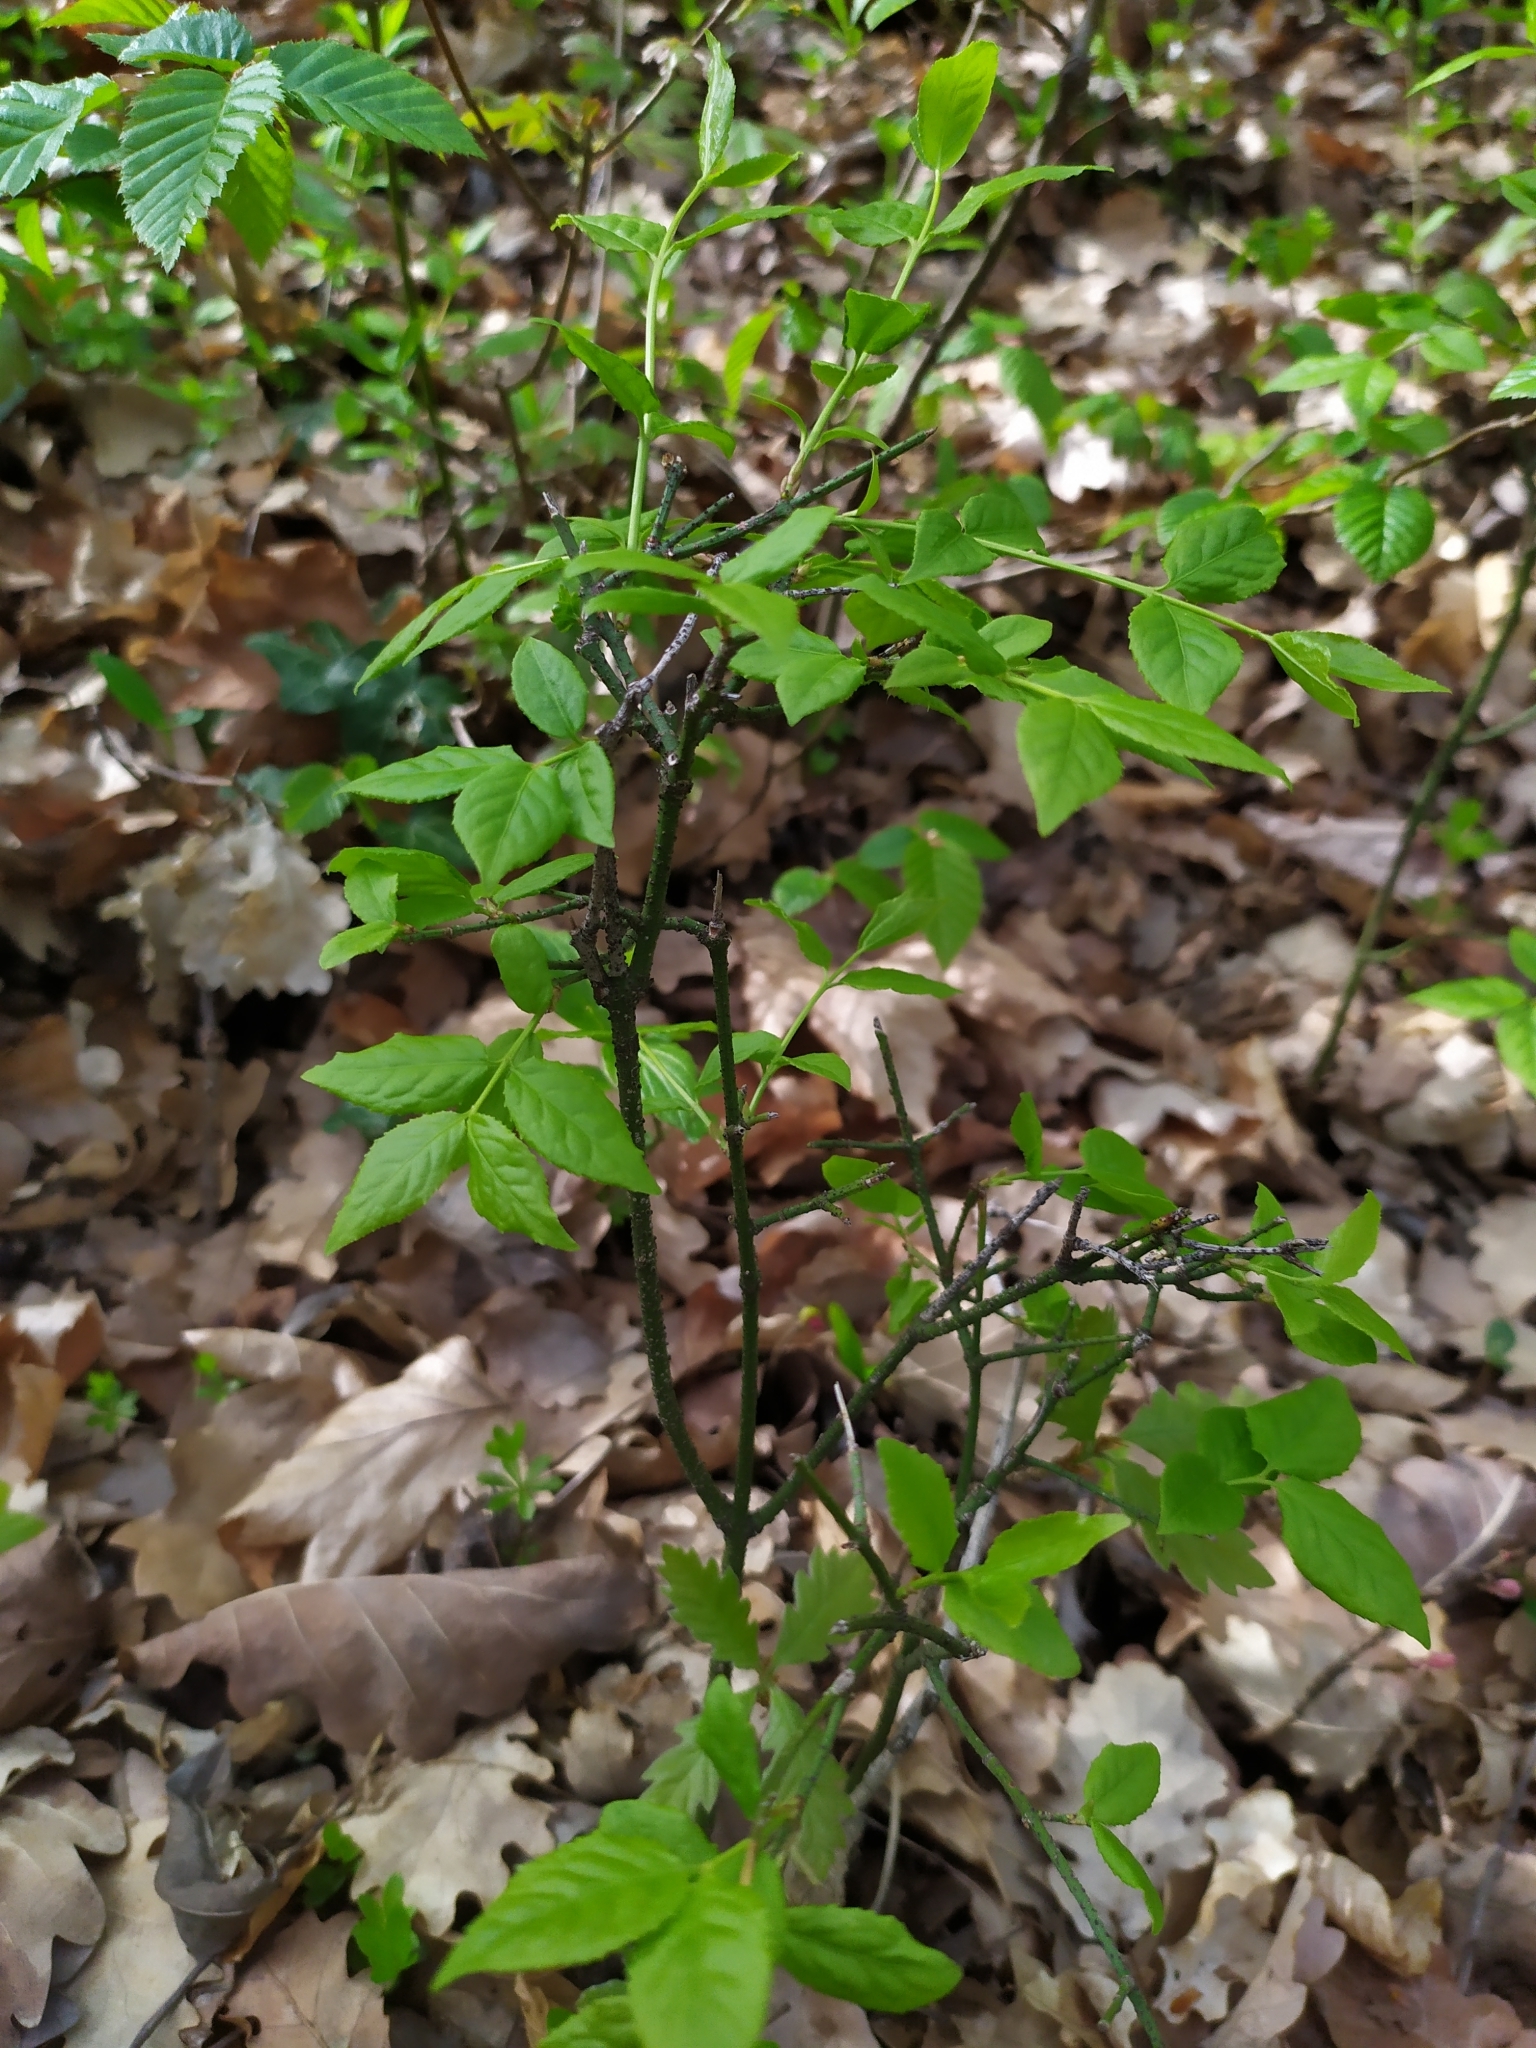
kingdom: Plantae
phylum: Tracheophyta
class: Magnoliopsida
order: Celastrales
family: Celastraceae
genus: Euonymus
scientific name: Euonymus verrucosus
